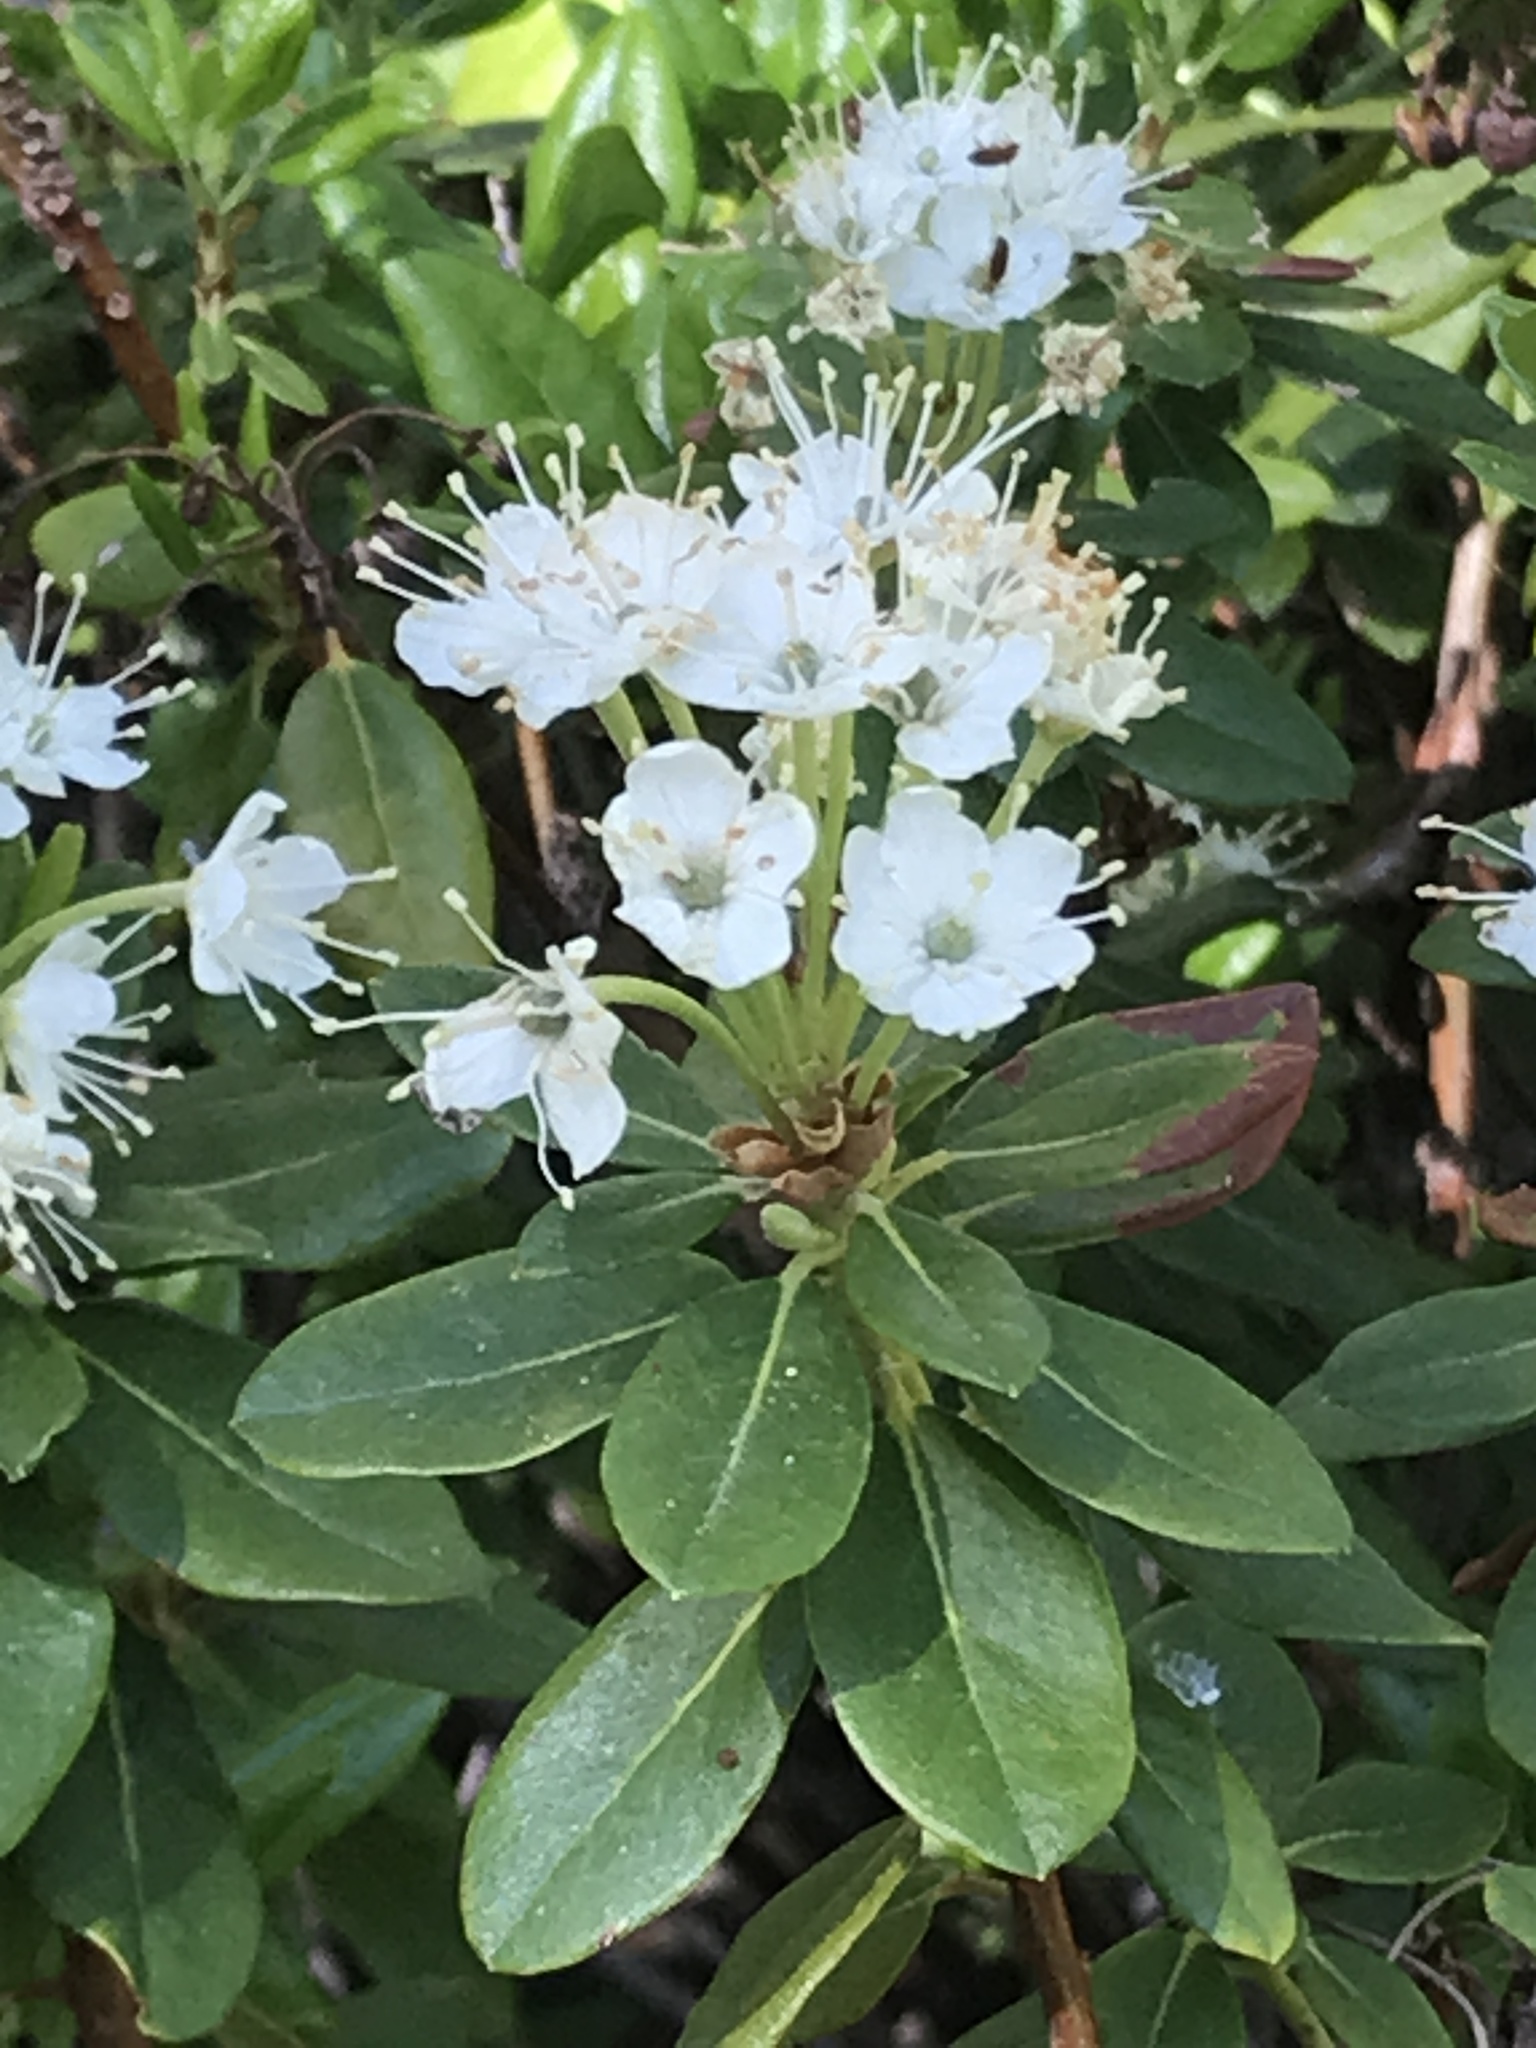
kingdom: Plantae
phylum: Tracheophyta
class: Magnoliopsida
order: Ericales
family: Ericaceae
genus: Rhododendron
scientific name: Rhododendron columbianum
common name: Western labrador tea
